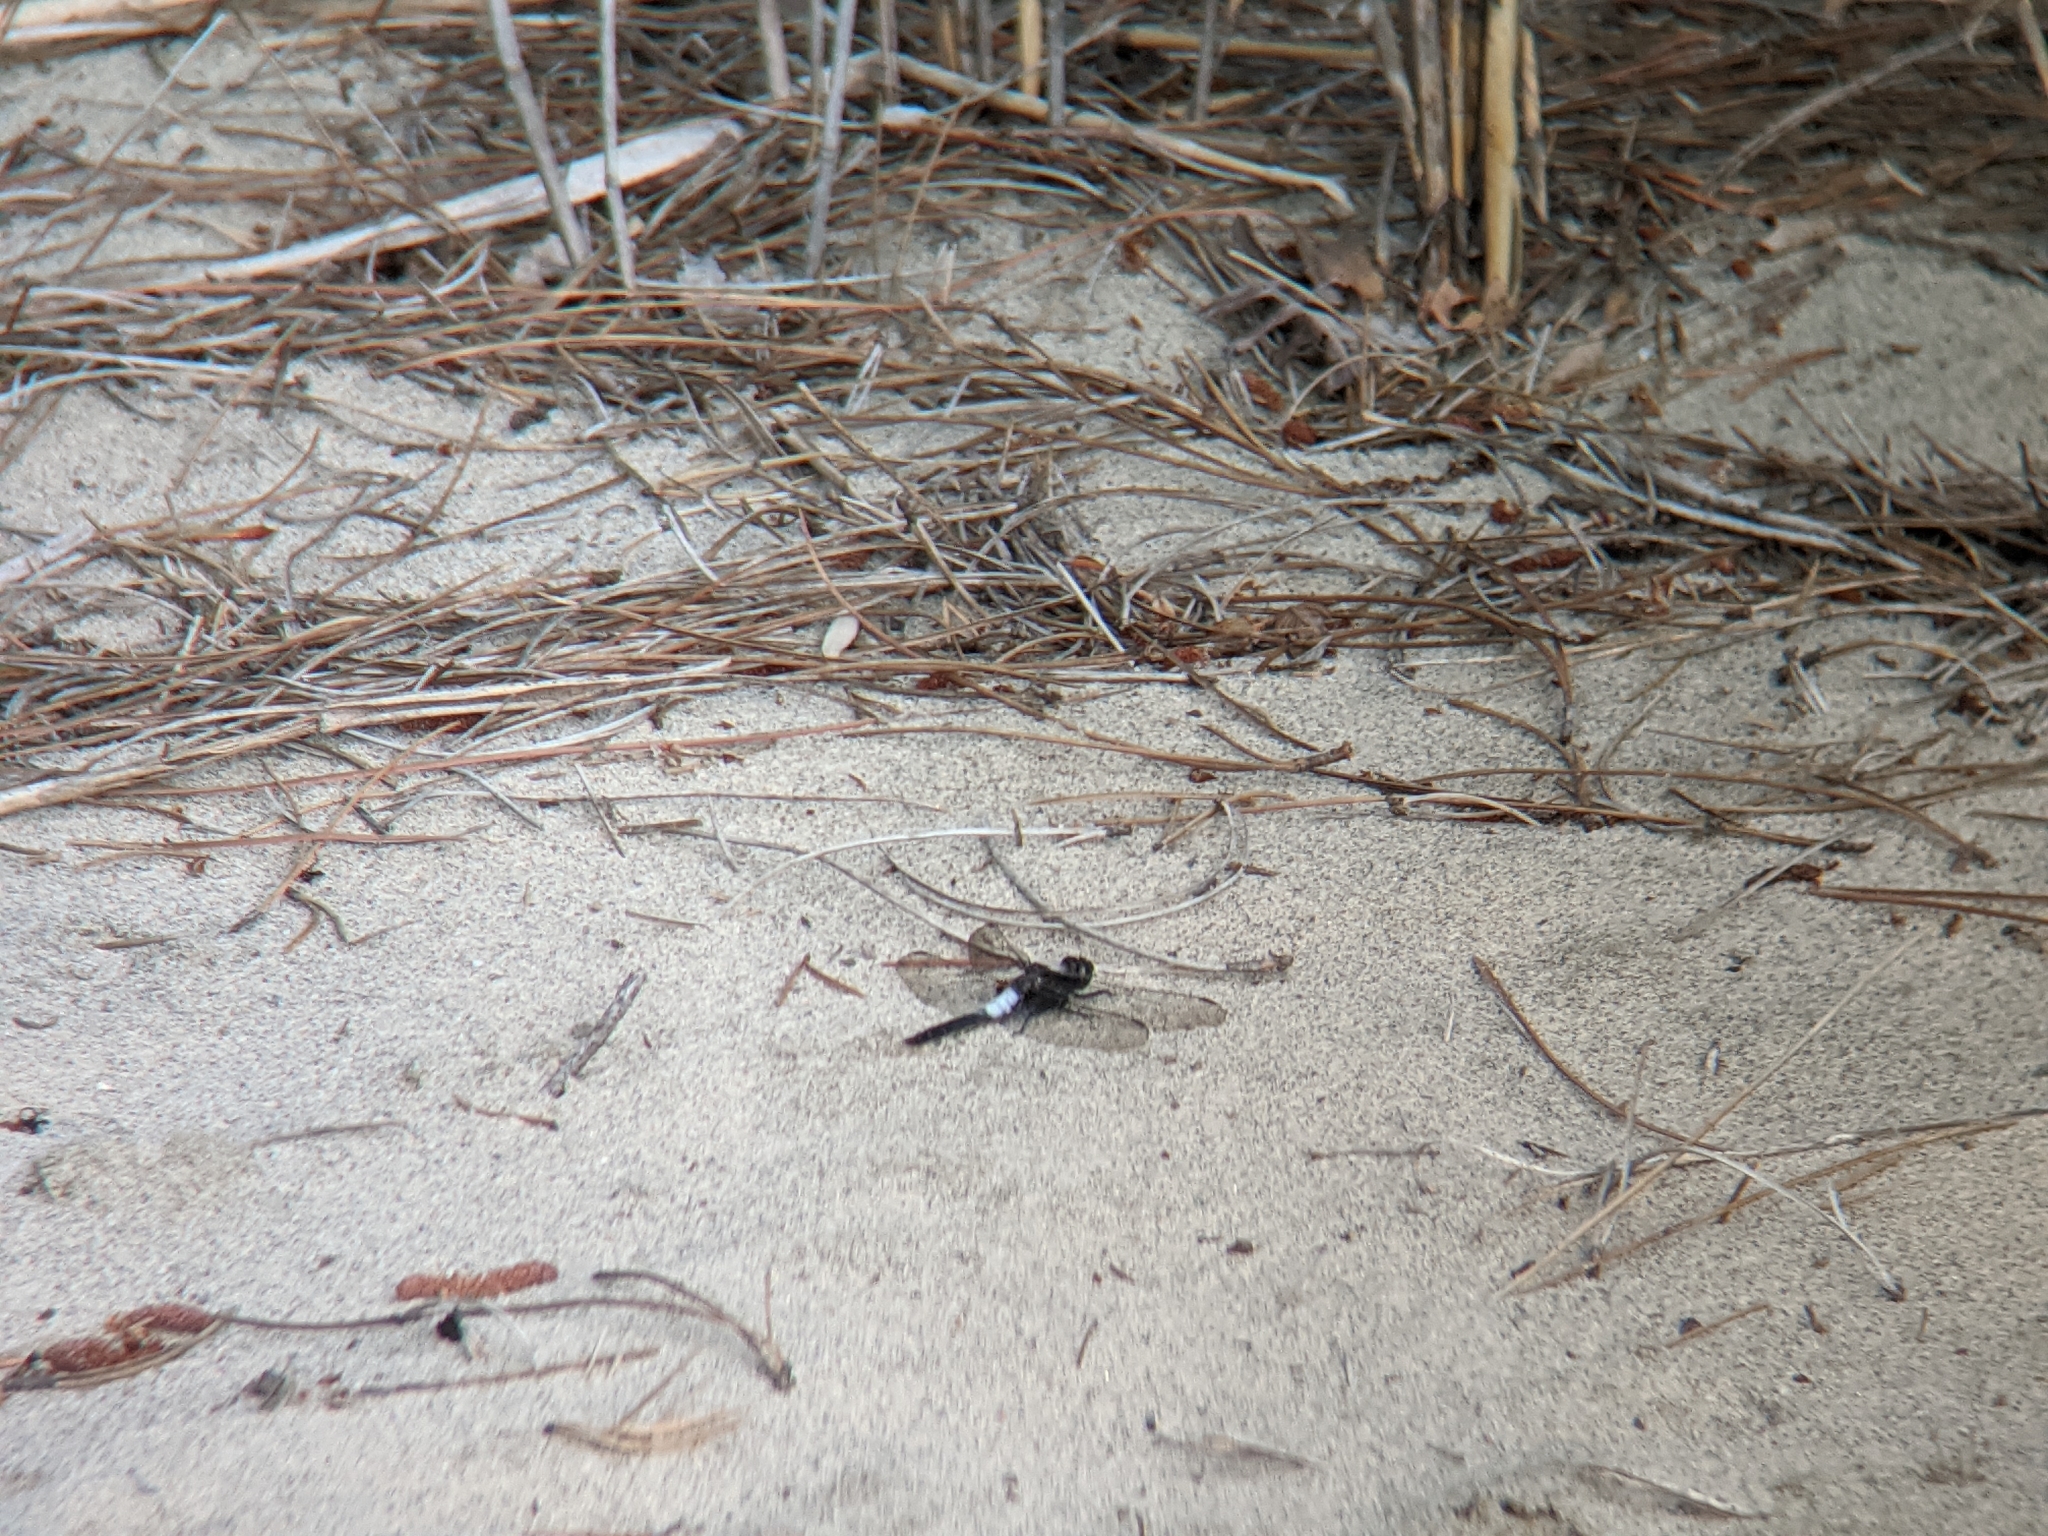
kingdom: Animalia
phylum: Arthropoda
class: Insecta
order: Odonata
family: Libellulidae
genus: Ladona
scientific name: Ladona julia
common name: Chalk-fronted corporal
